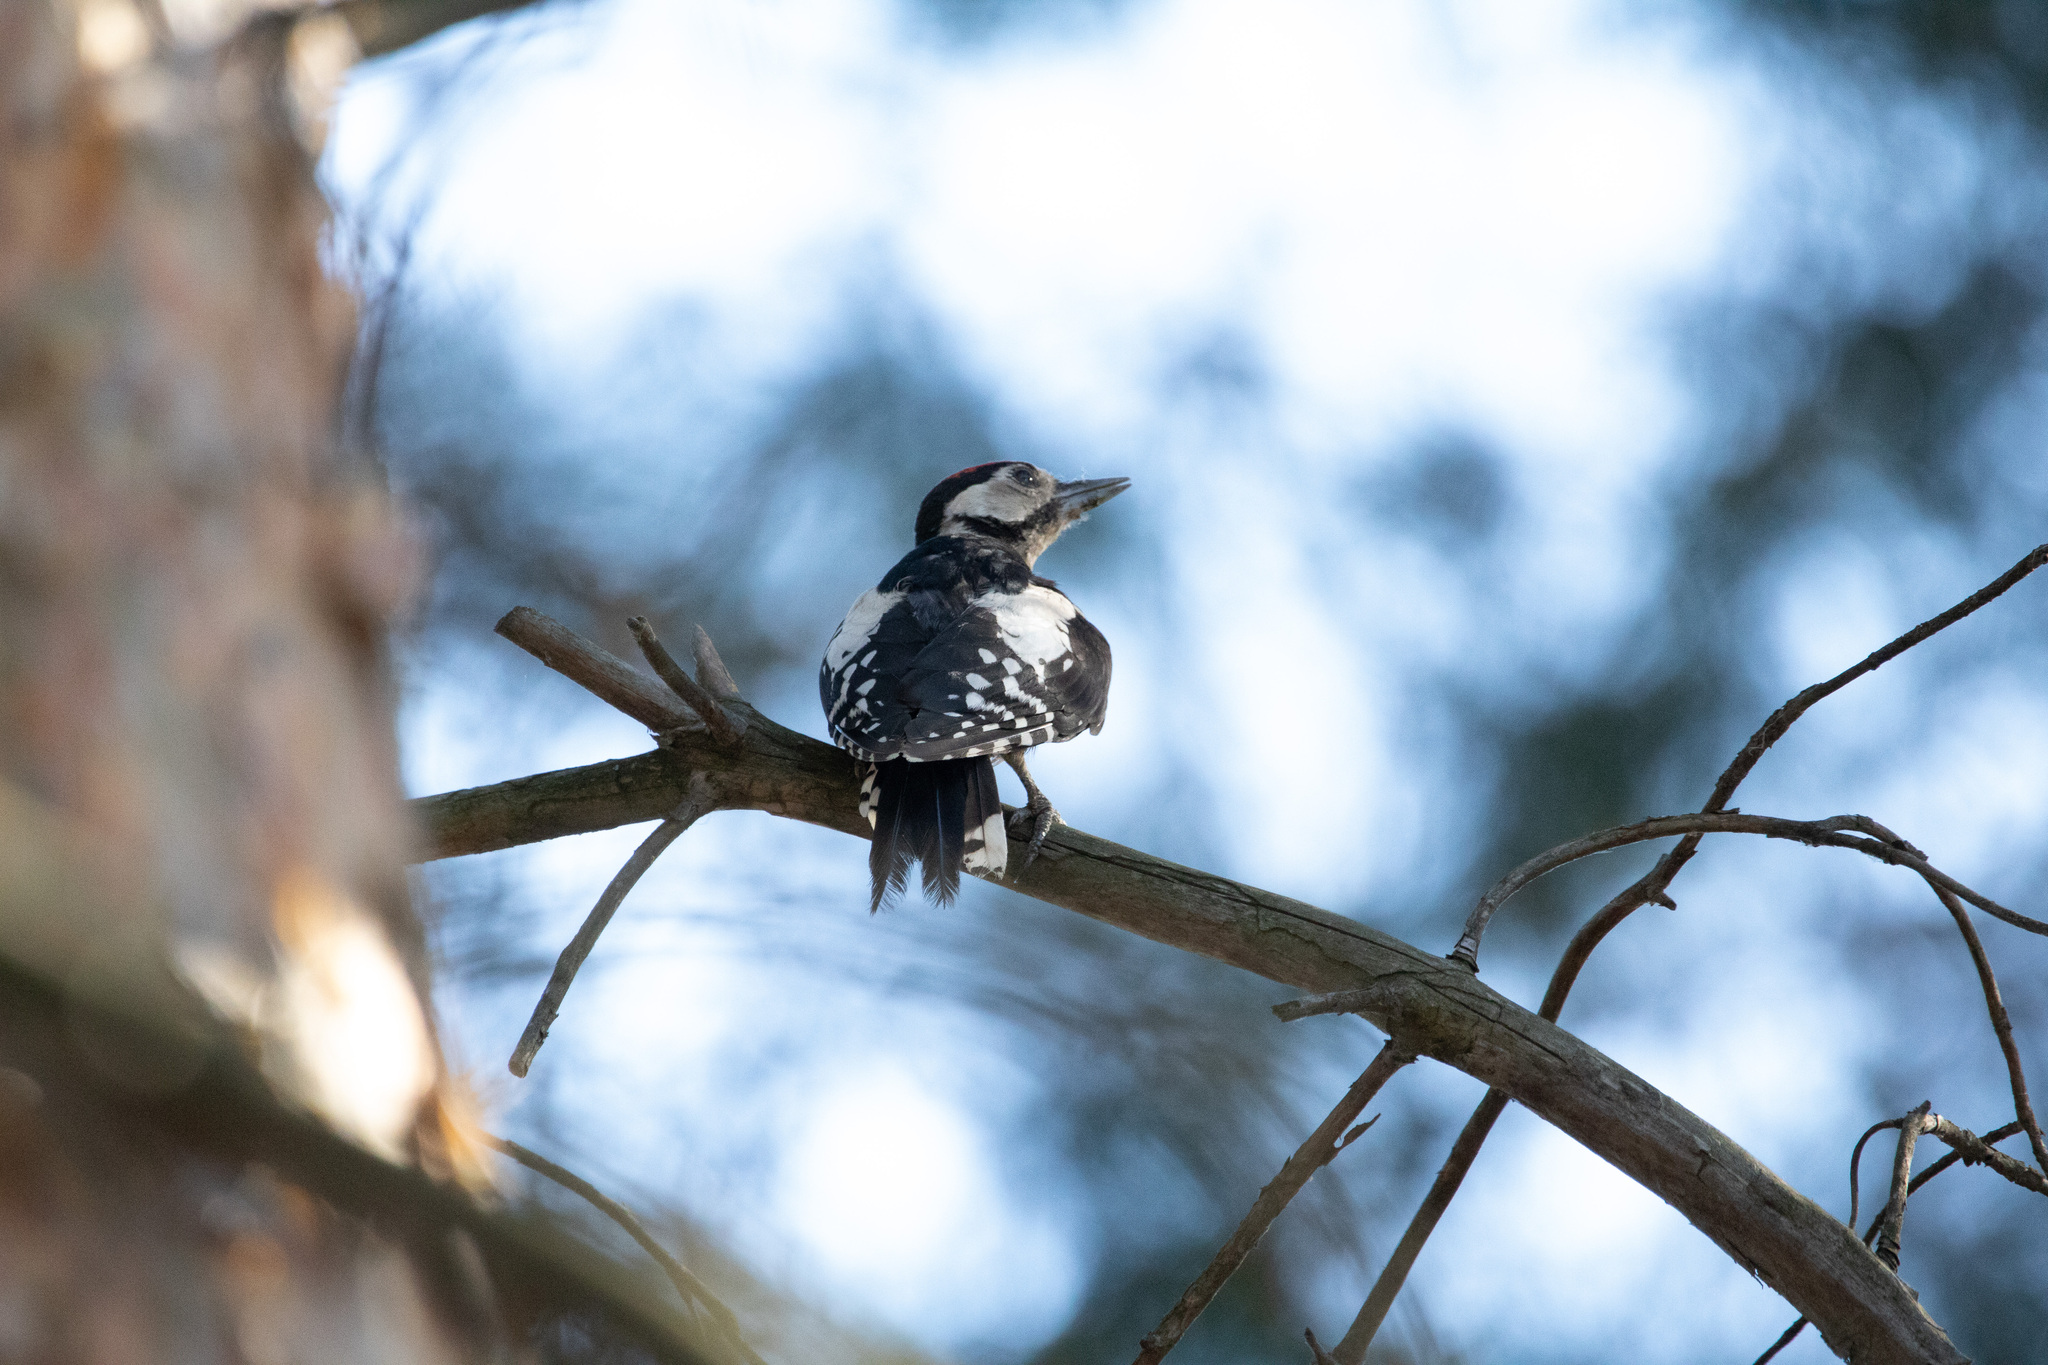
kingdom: Animalia
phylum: Chordata
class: Aves
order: Piciformes
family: Picidae
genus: Dendrocopos
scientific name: Dendrocopos major
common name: Great spotted woodpecker
